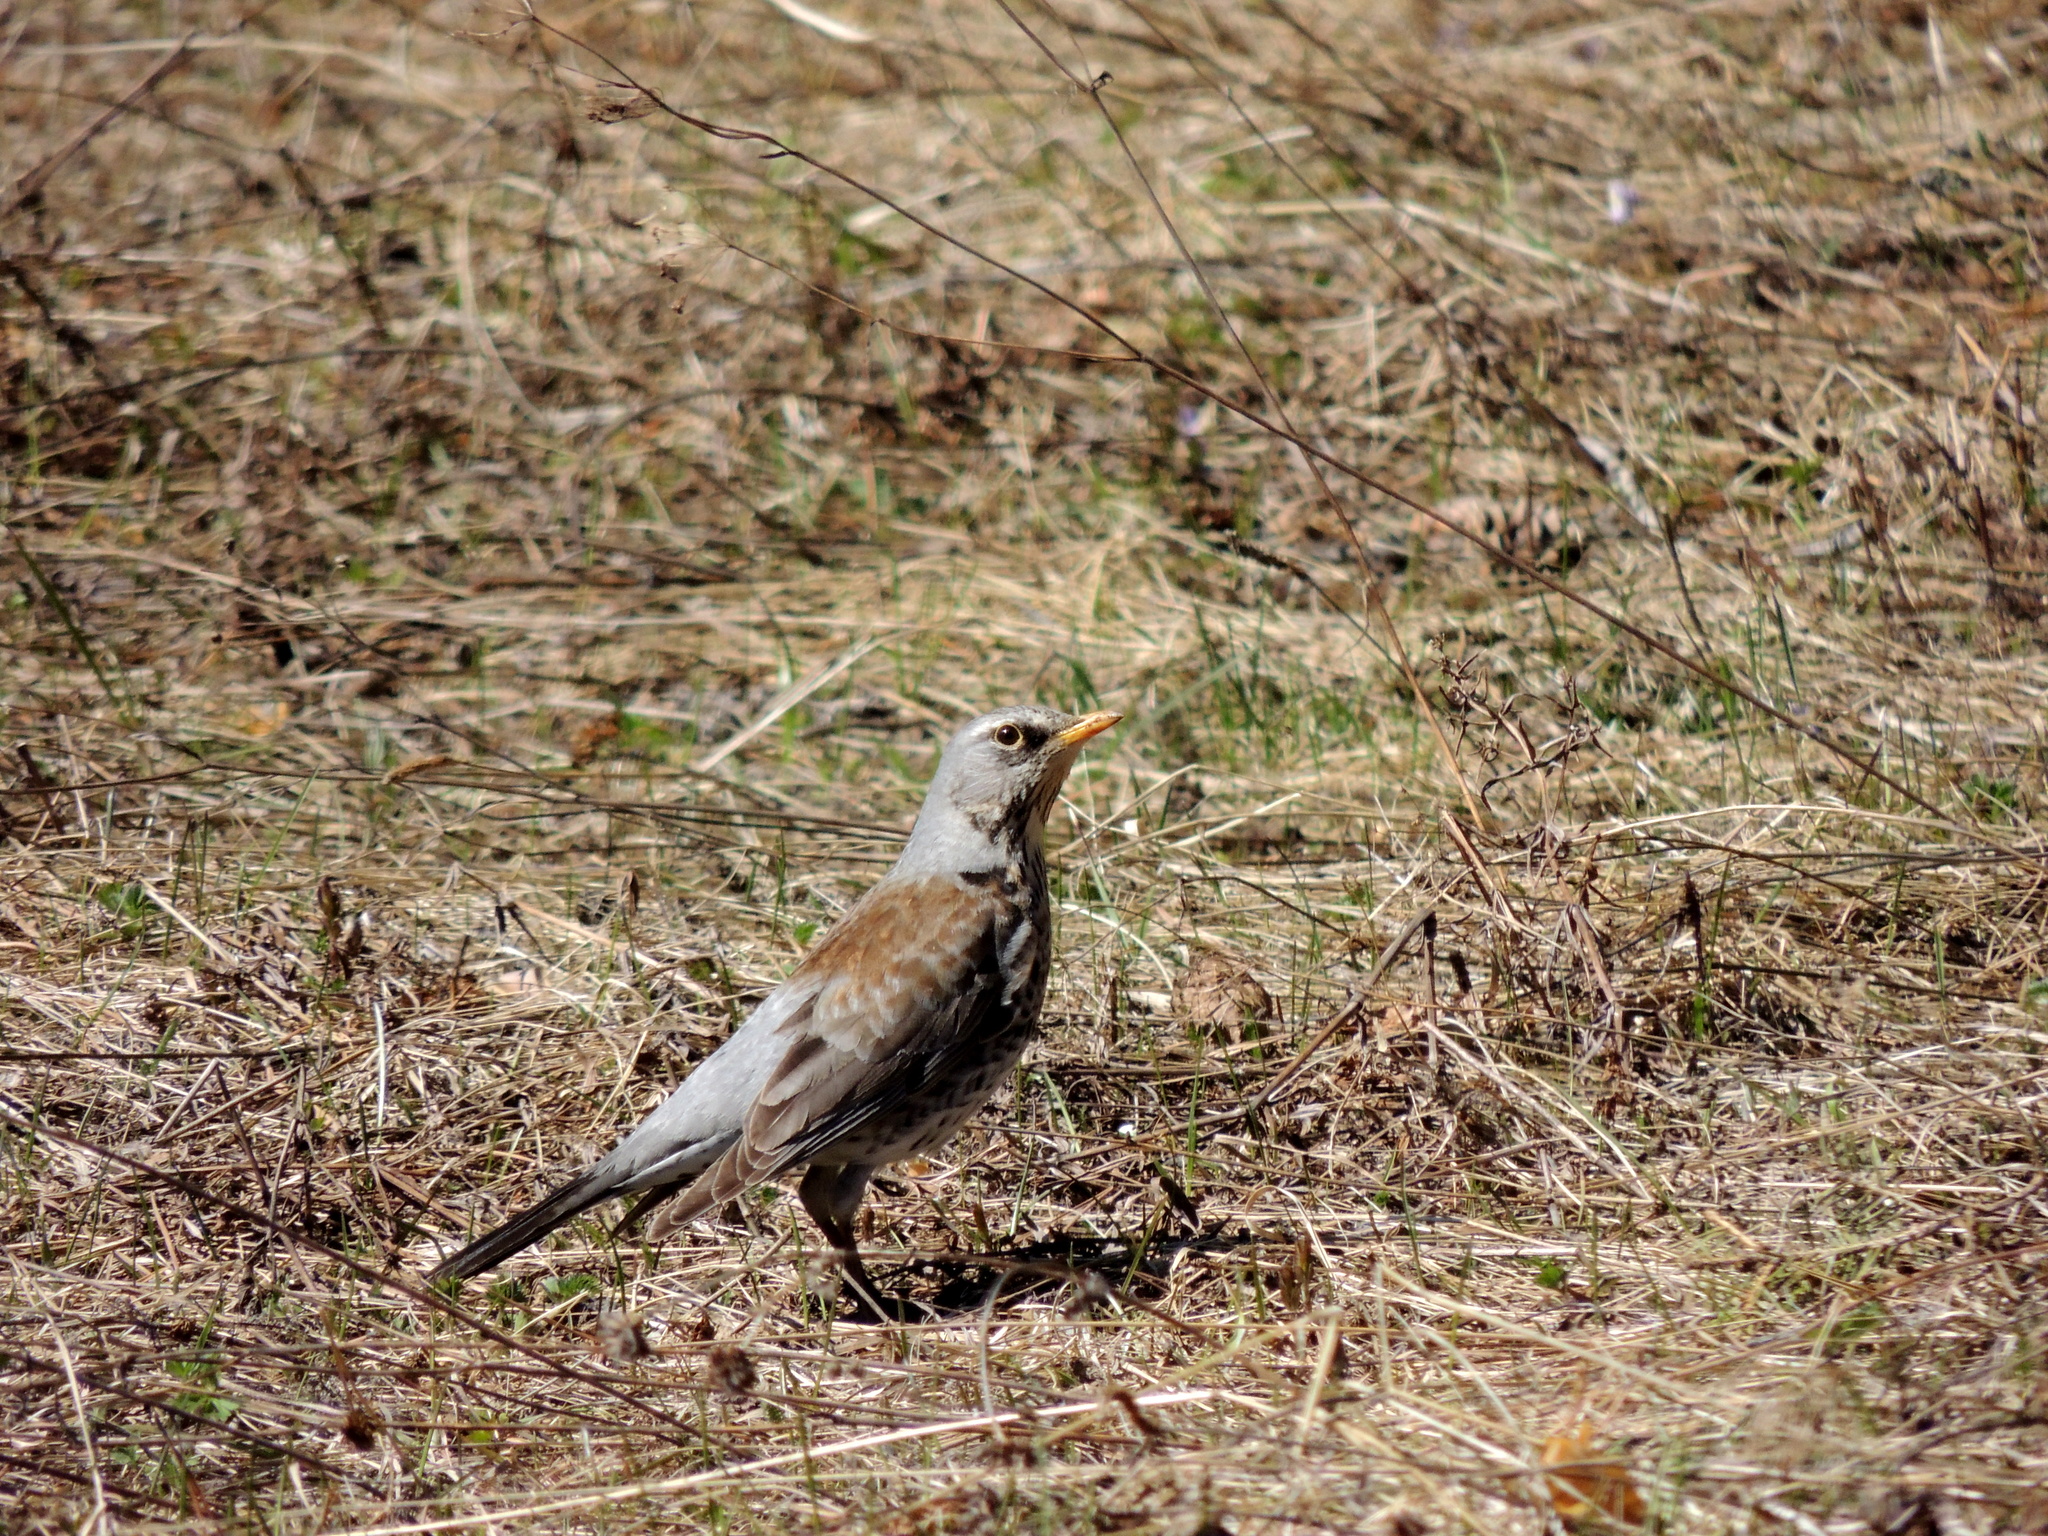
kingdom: Animalia
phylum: Chordata
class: Aves
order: Passeriformes
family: Turdidae
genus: Turdus
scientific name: Turdus pilaris
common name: Fieldfare
